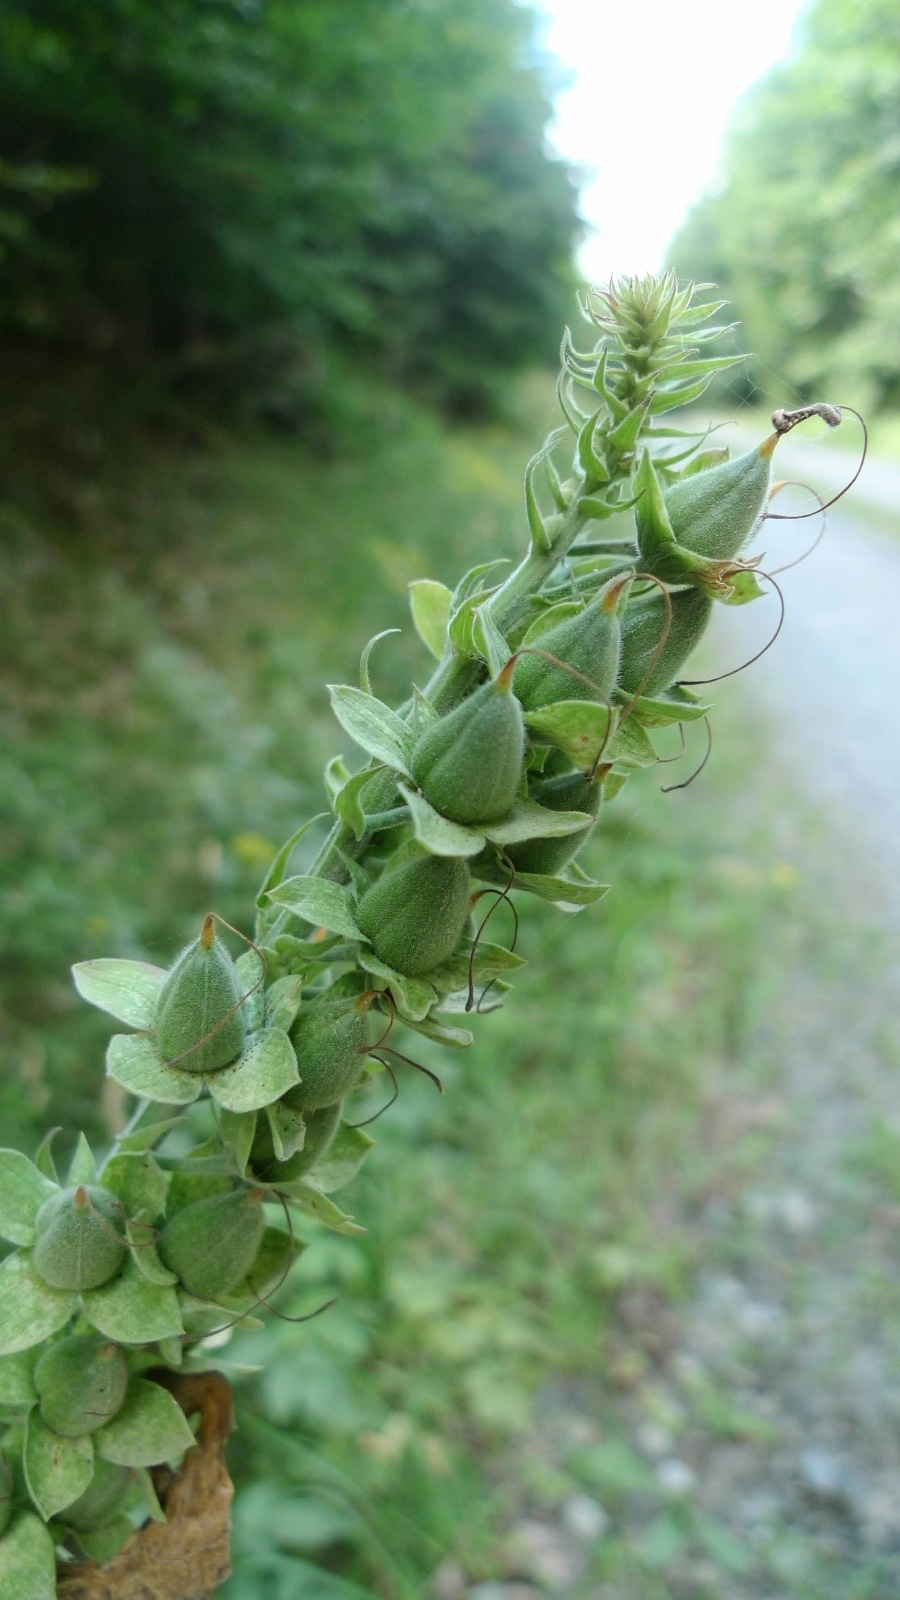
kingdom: Plantae
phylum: Tracheophyta
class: Magnoliopsida
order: Lamiales
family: Plantaginaceae
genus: Digitalis
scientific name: Digitalis purpurea
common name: Foxglove
